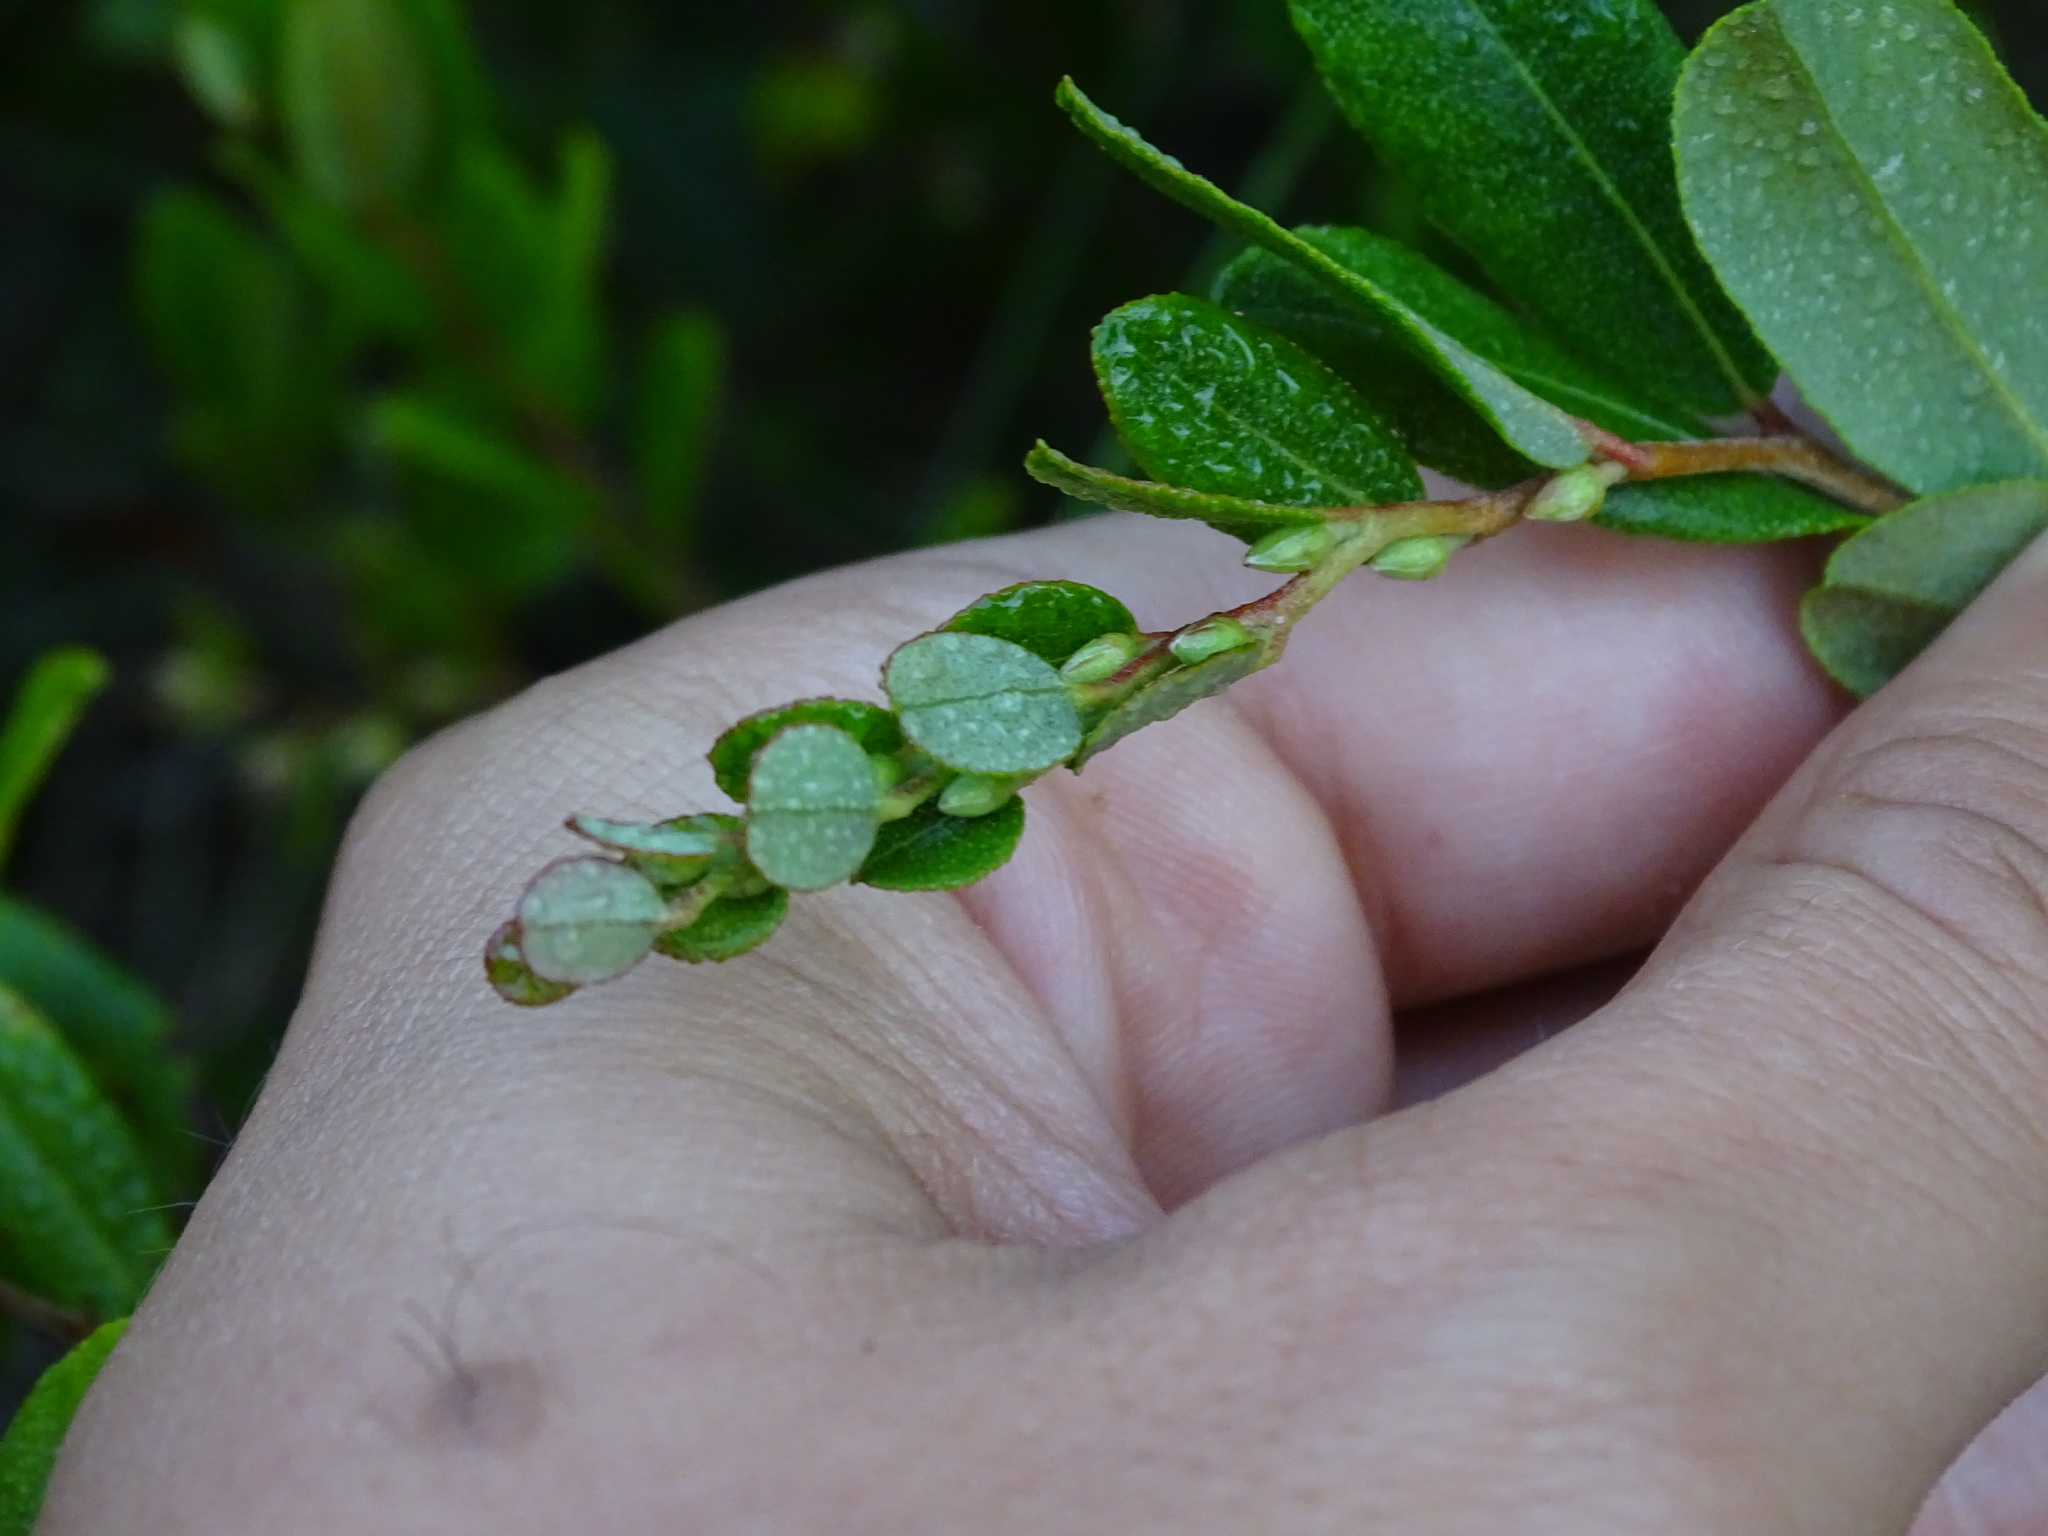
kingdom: Plantae
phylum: Tracheophyta
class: Magnoliopsida
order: Ericales
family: Ericaceae
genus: Chamaedaphne
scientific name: Chamaedaphne calyculata
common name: Leatherleaf
